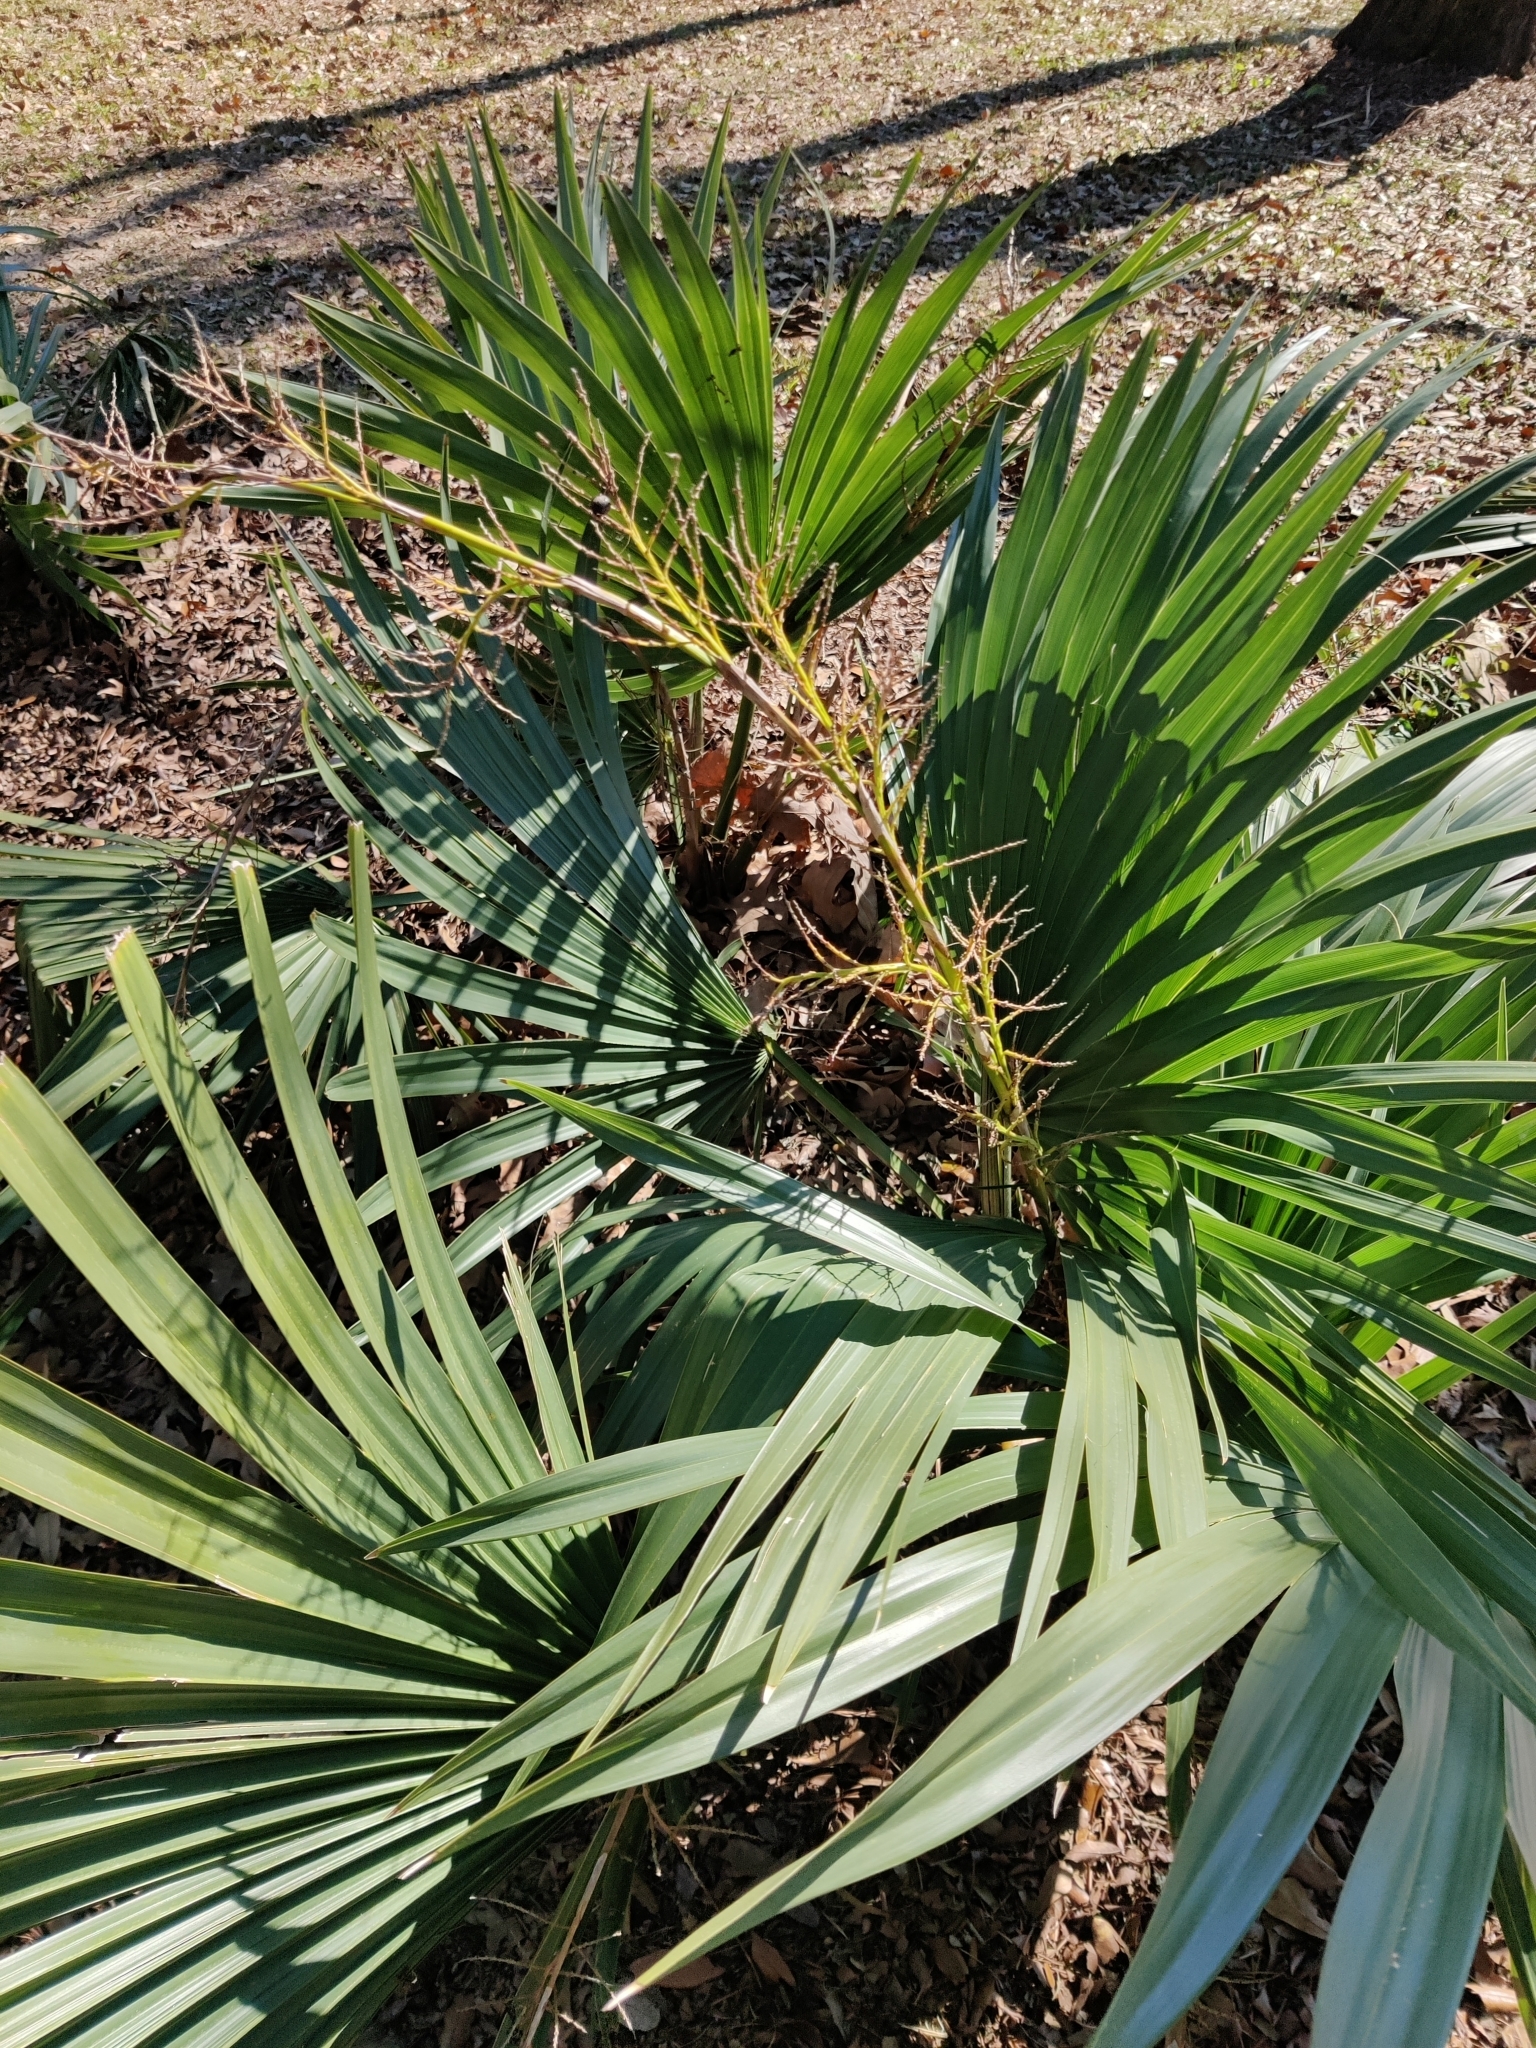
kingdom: Plantae
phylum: Tracheophyta
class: Liliopsida
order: Arecales
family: Arecaceae
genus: Sabal
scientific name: Sabal minor
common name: Dwarf palmetto
